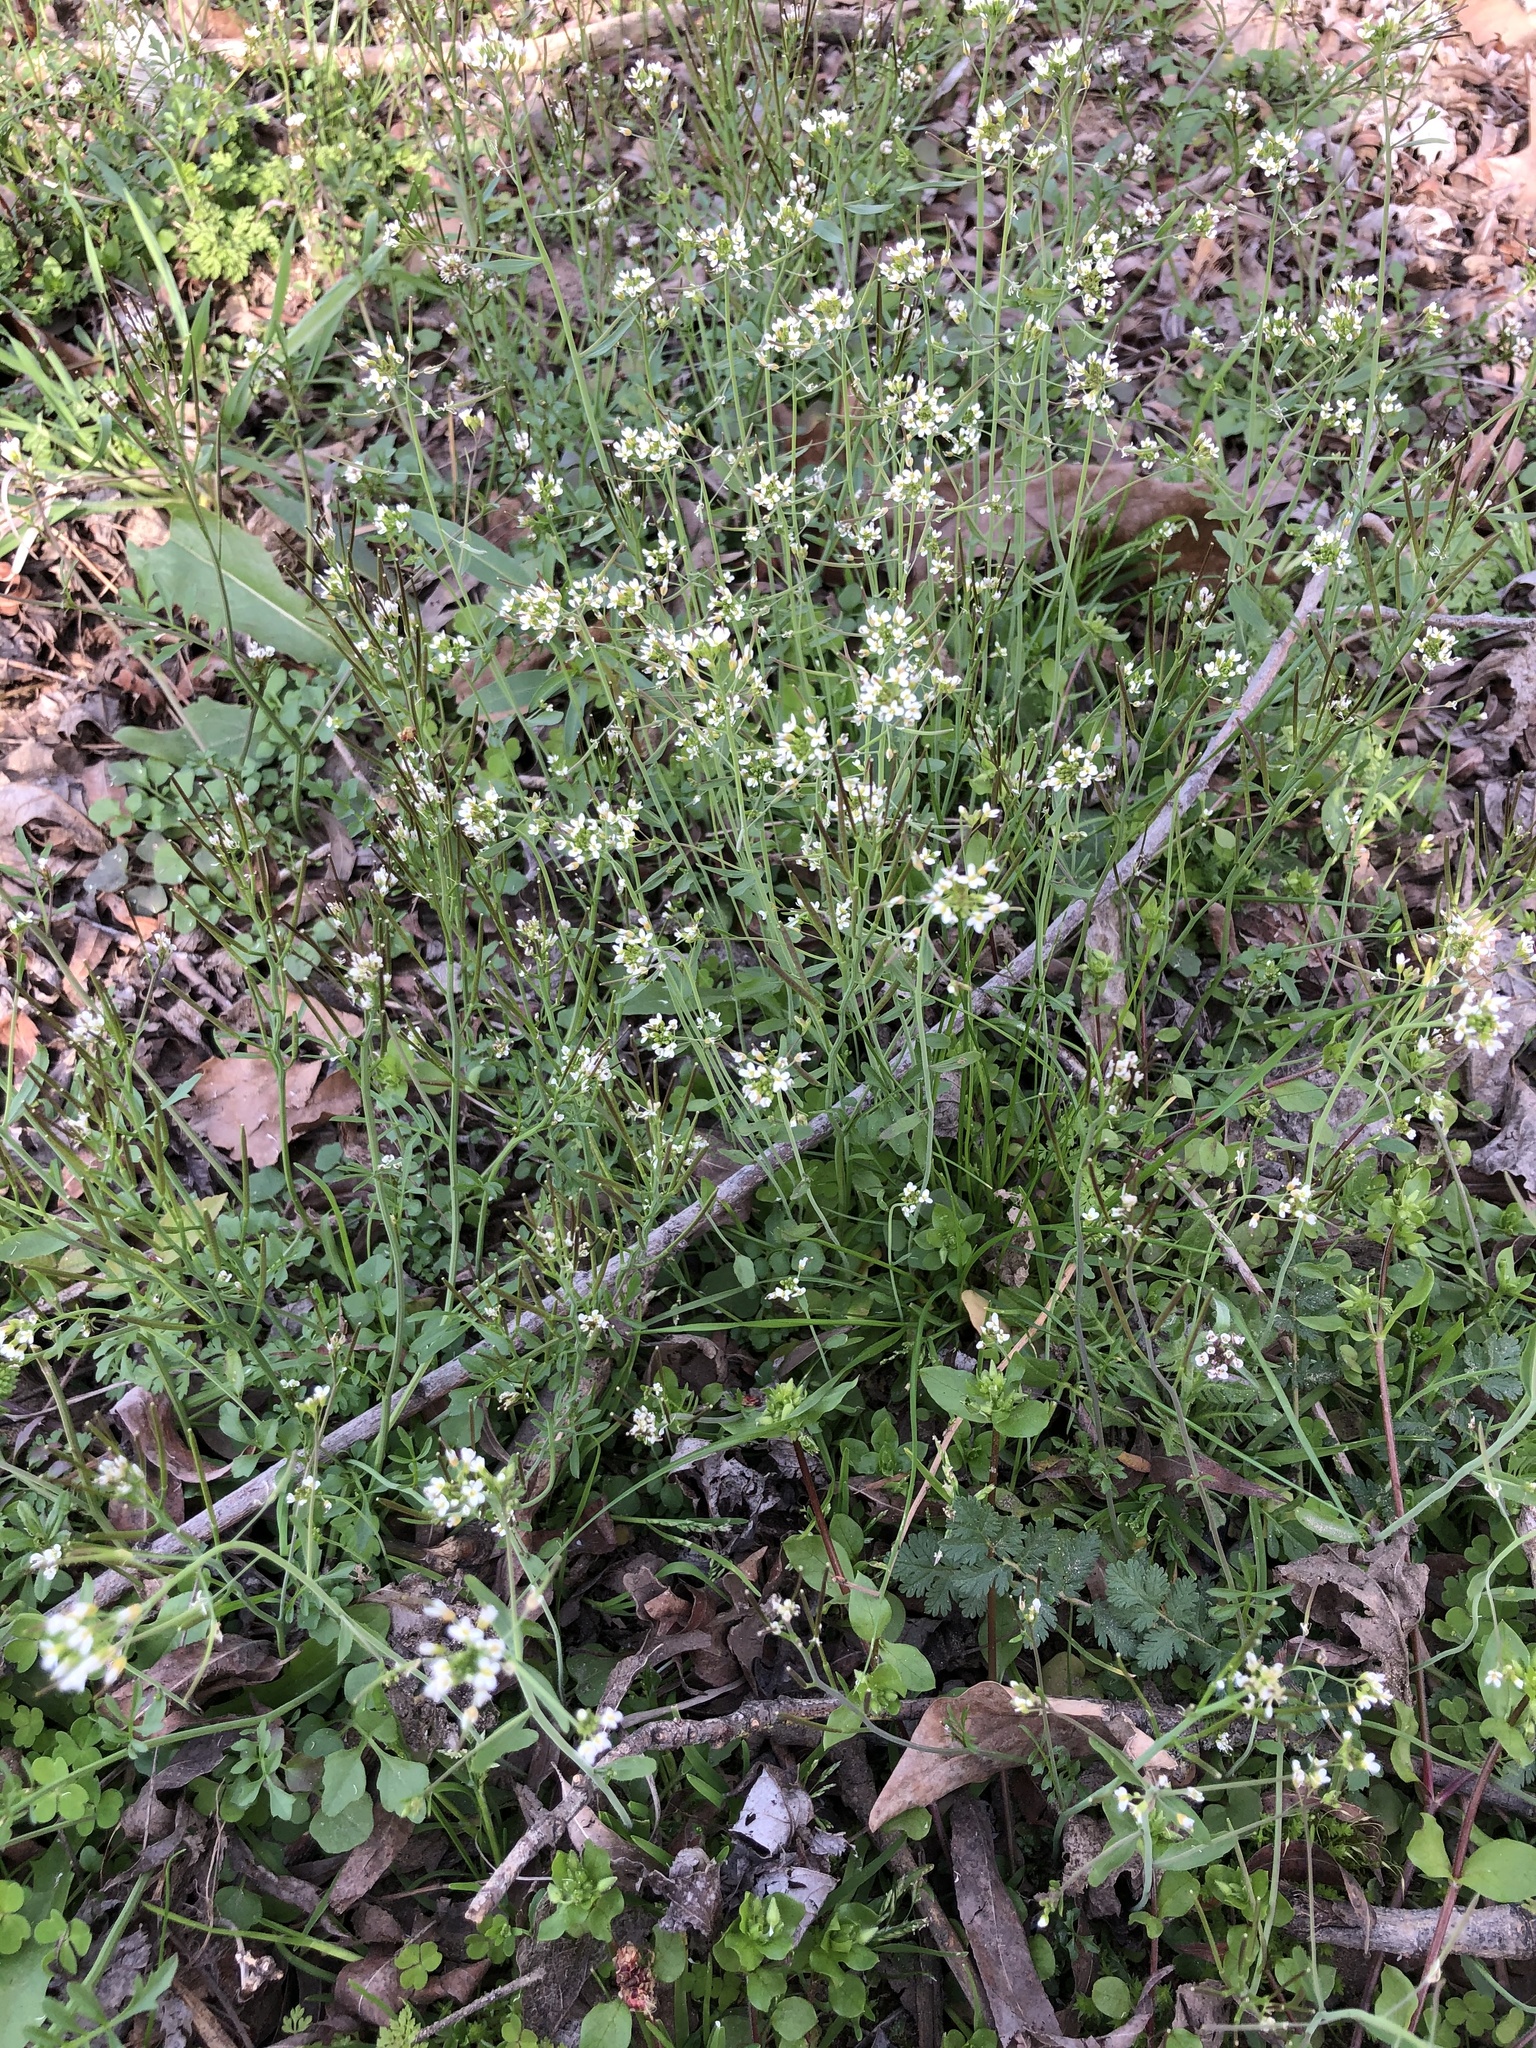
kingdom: Plantae
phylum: Tracheophyta
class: Magnoliopsida
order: Brassicales
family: Brassicaceae
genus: Cardamine
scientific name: Cardamine hirsuta
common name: Hairy bittercress
